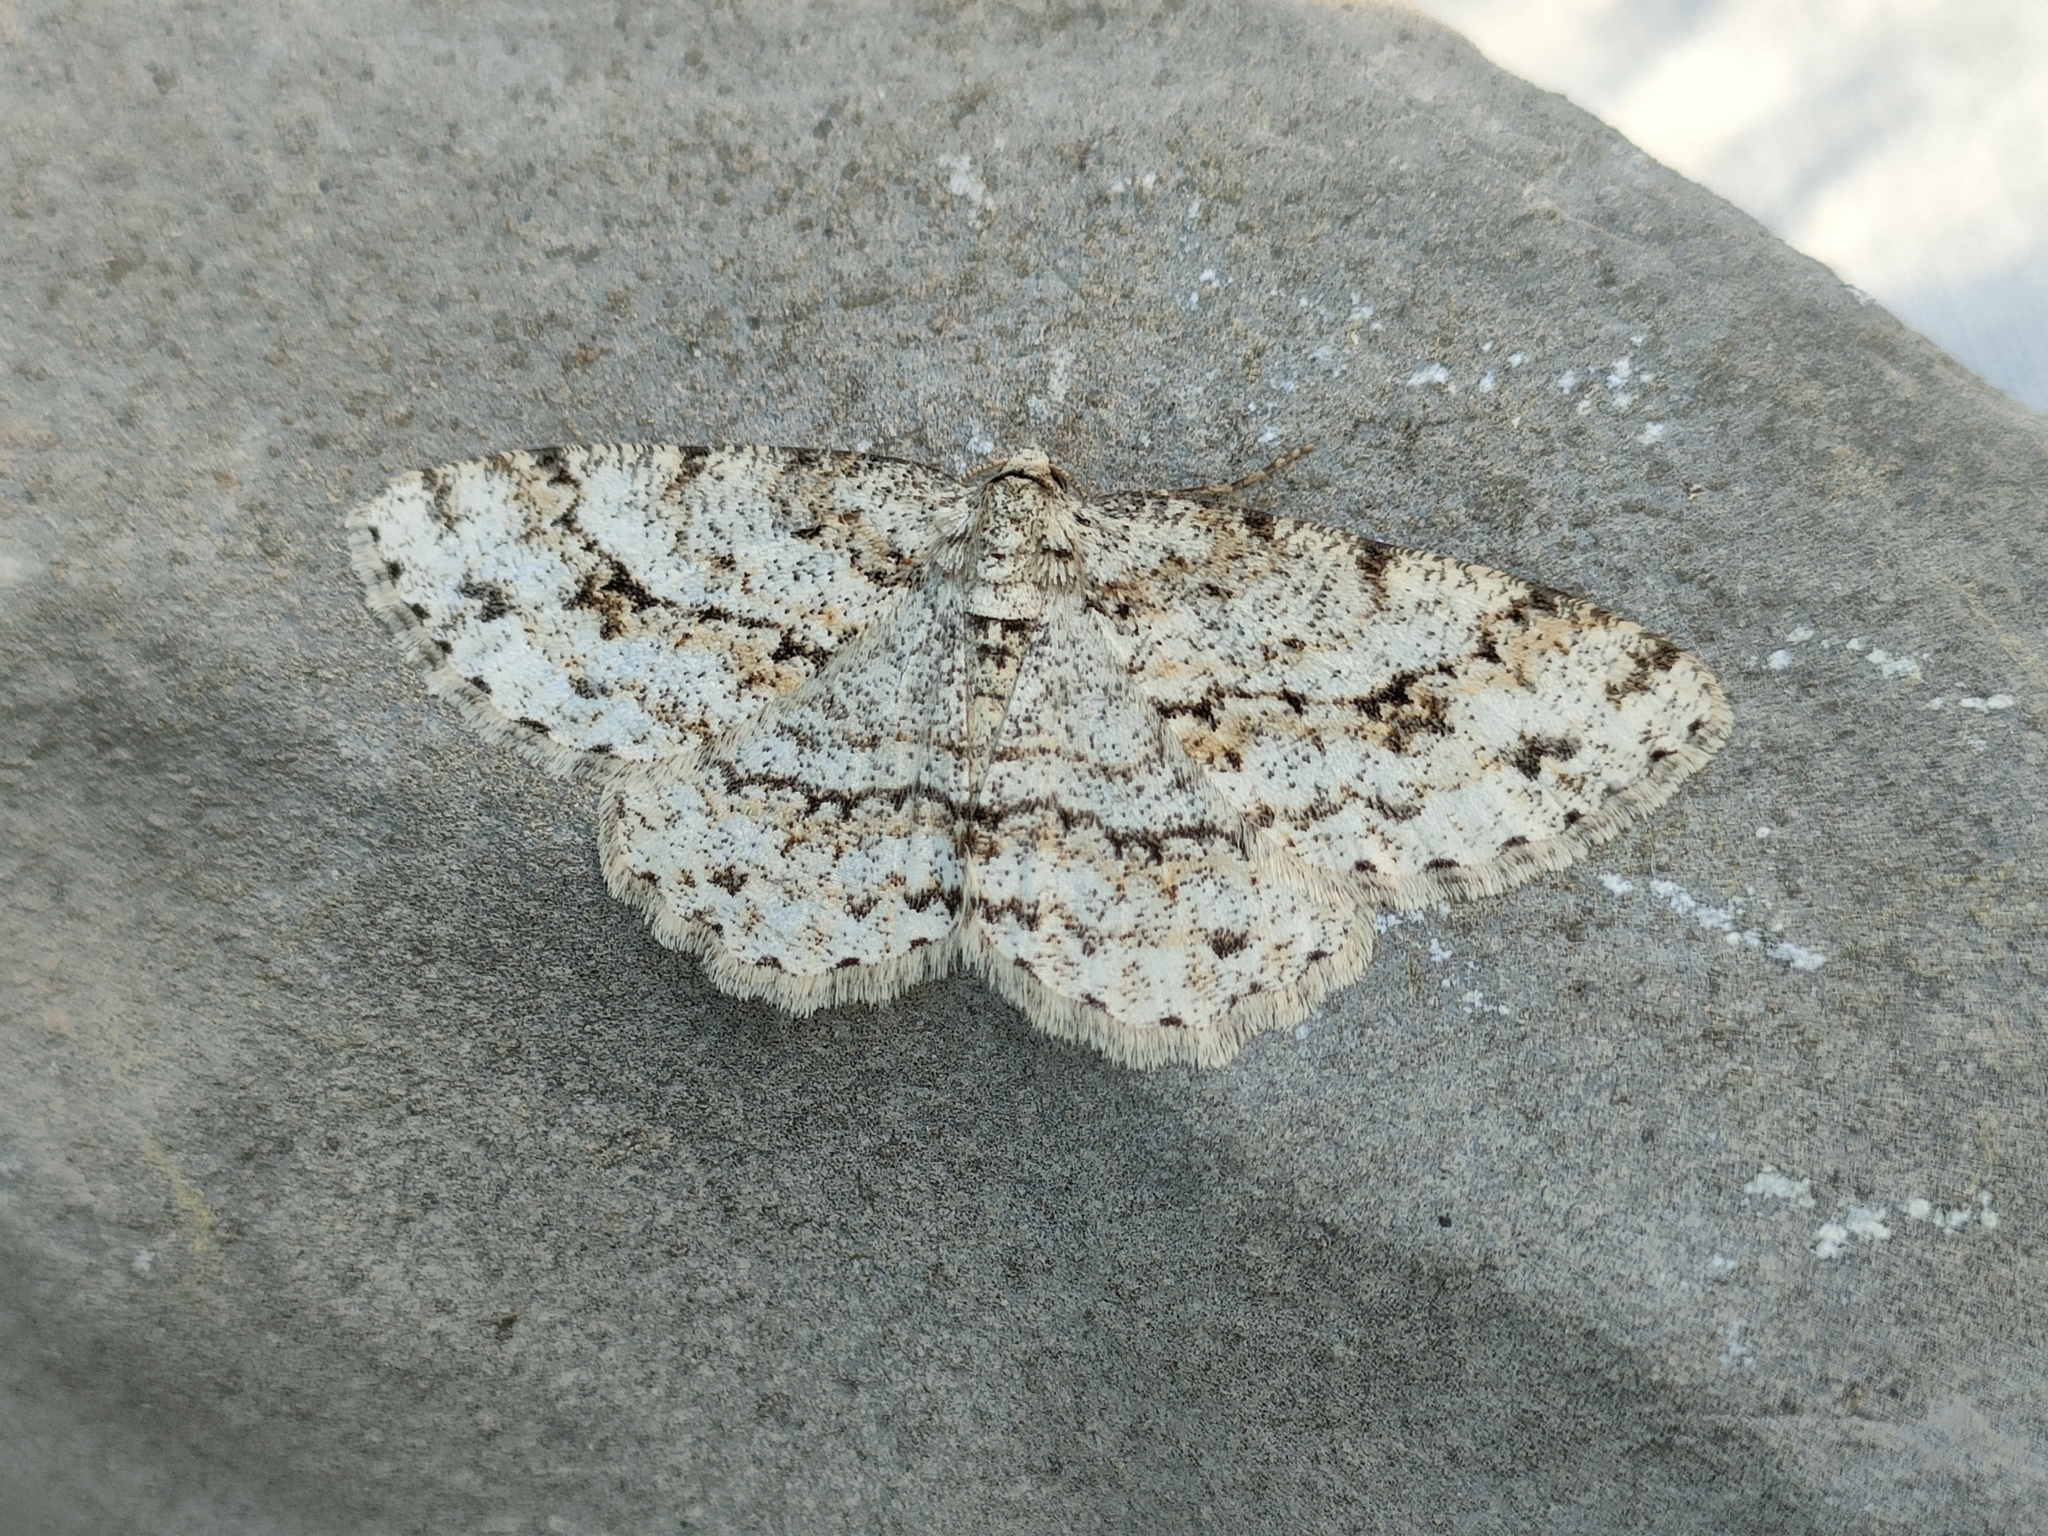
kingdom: Animalia
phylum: Arthropoda
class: Insecta
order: Lepidoptera
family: Geometridae
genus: Ectropis
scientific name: Ectropis crepuscularia
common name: Engrailed
